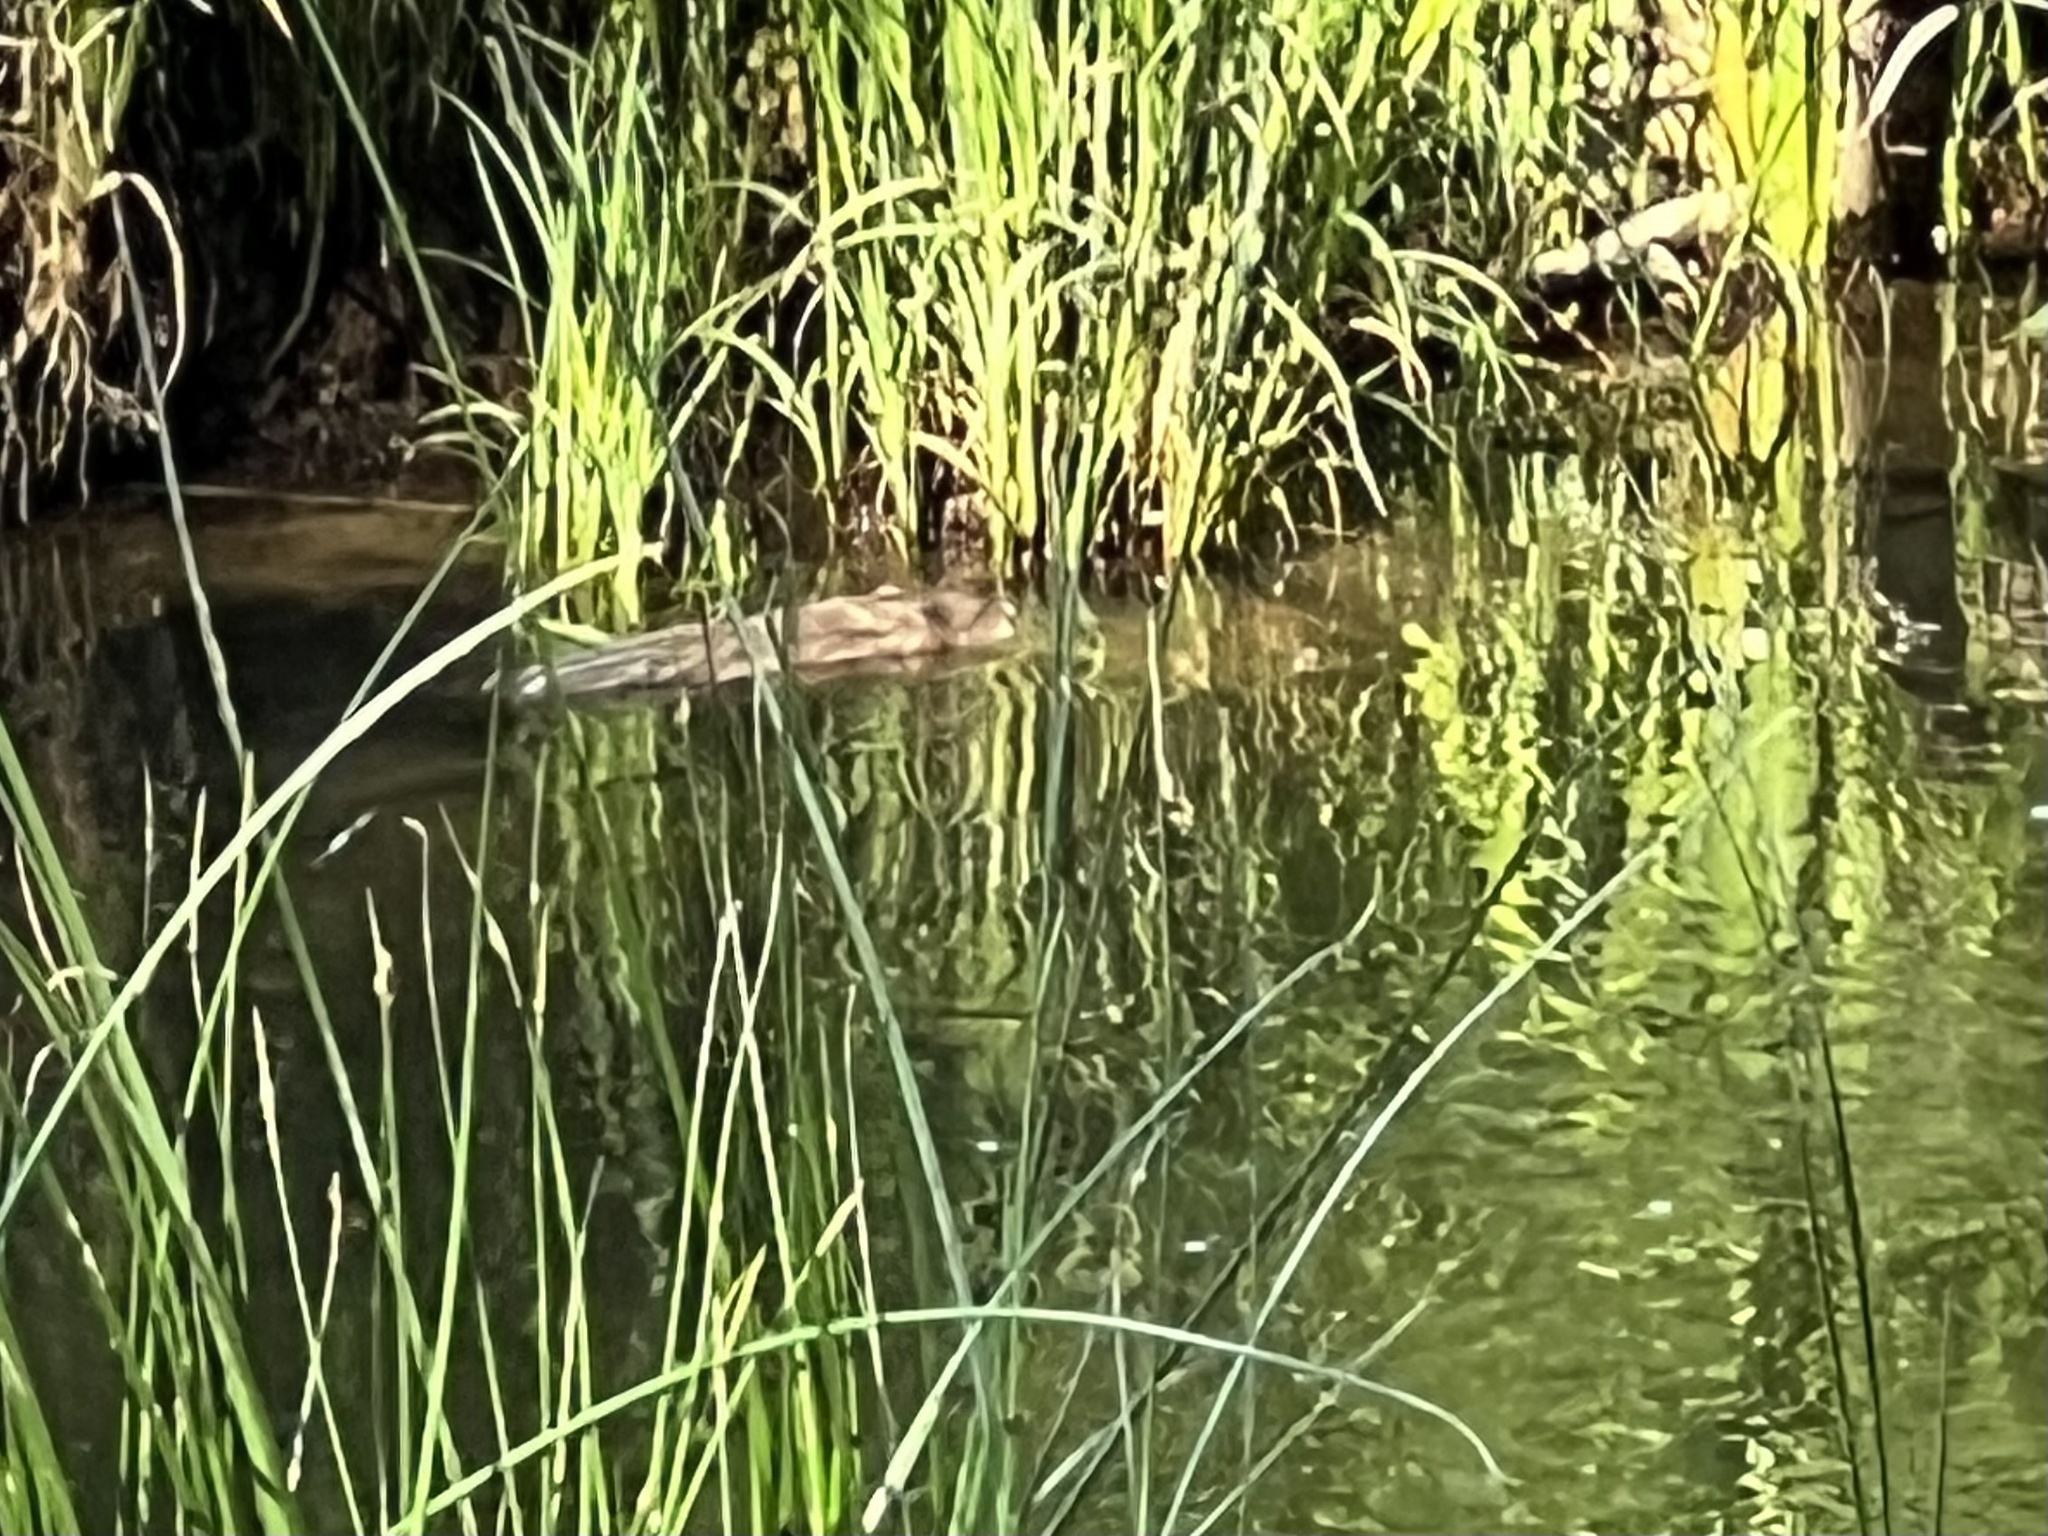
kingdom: Animalia
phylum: Chordata
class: Mammalia
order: Rodentia
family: Cricetidae
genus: Ondatra
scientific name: Ondatra zibethicus
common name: Muskrat
